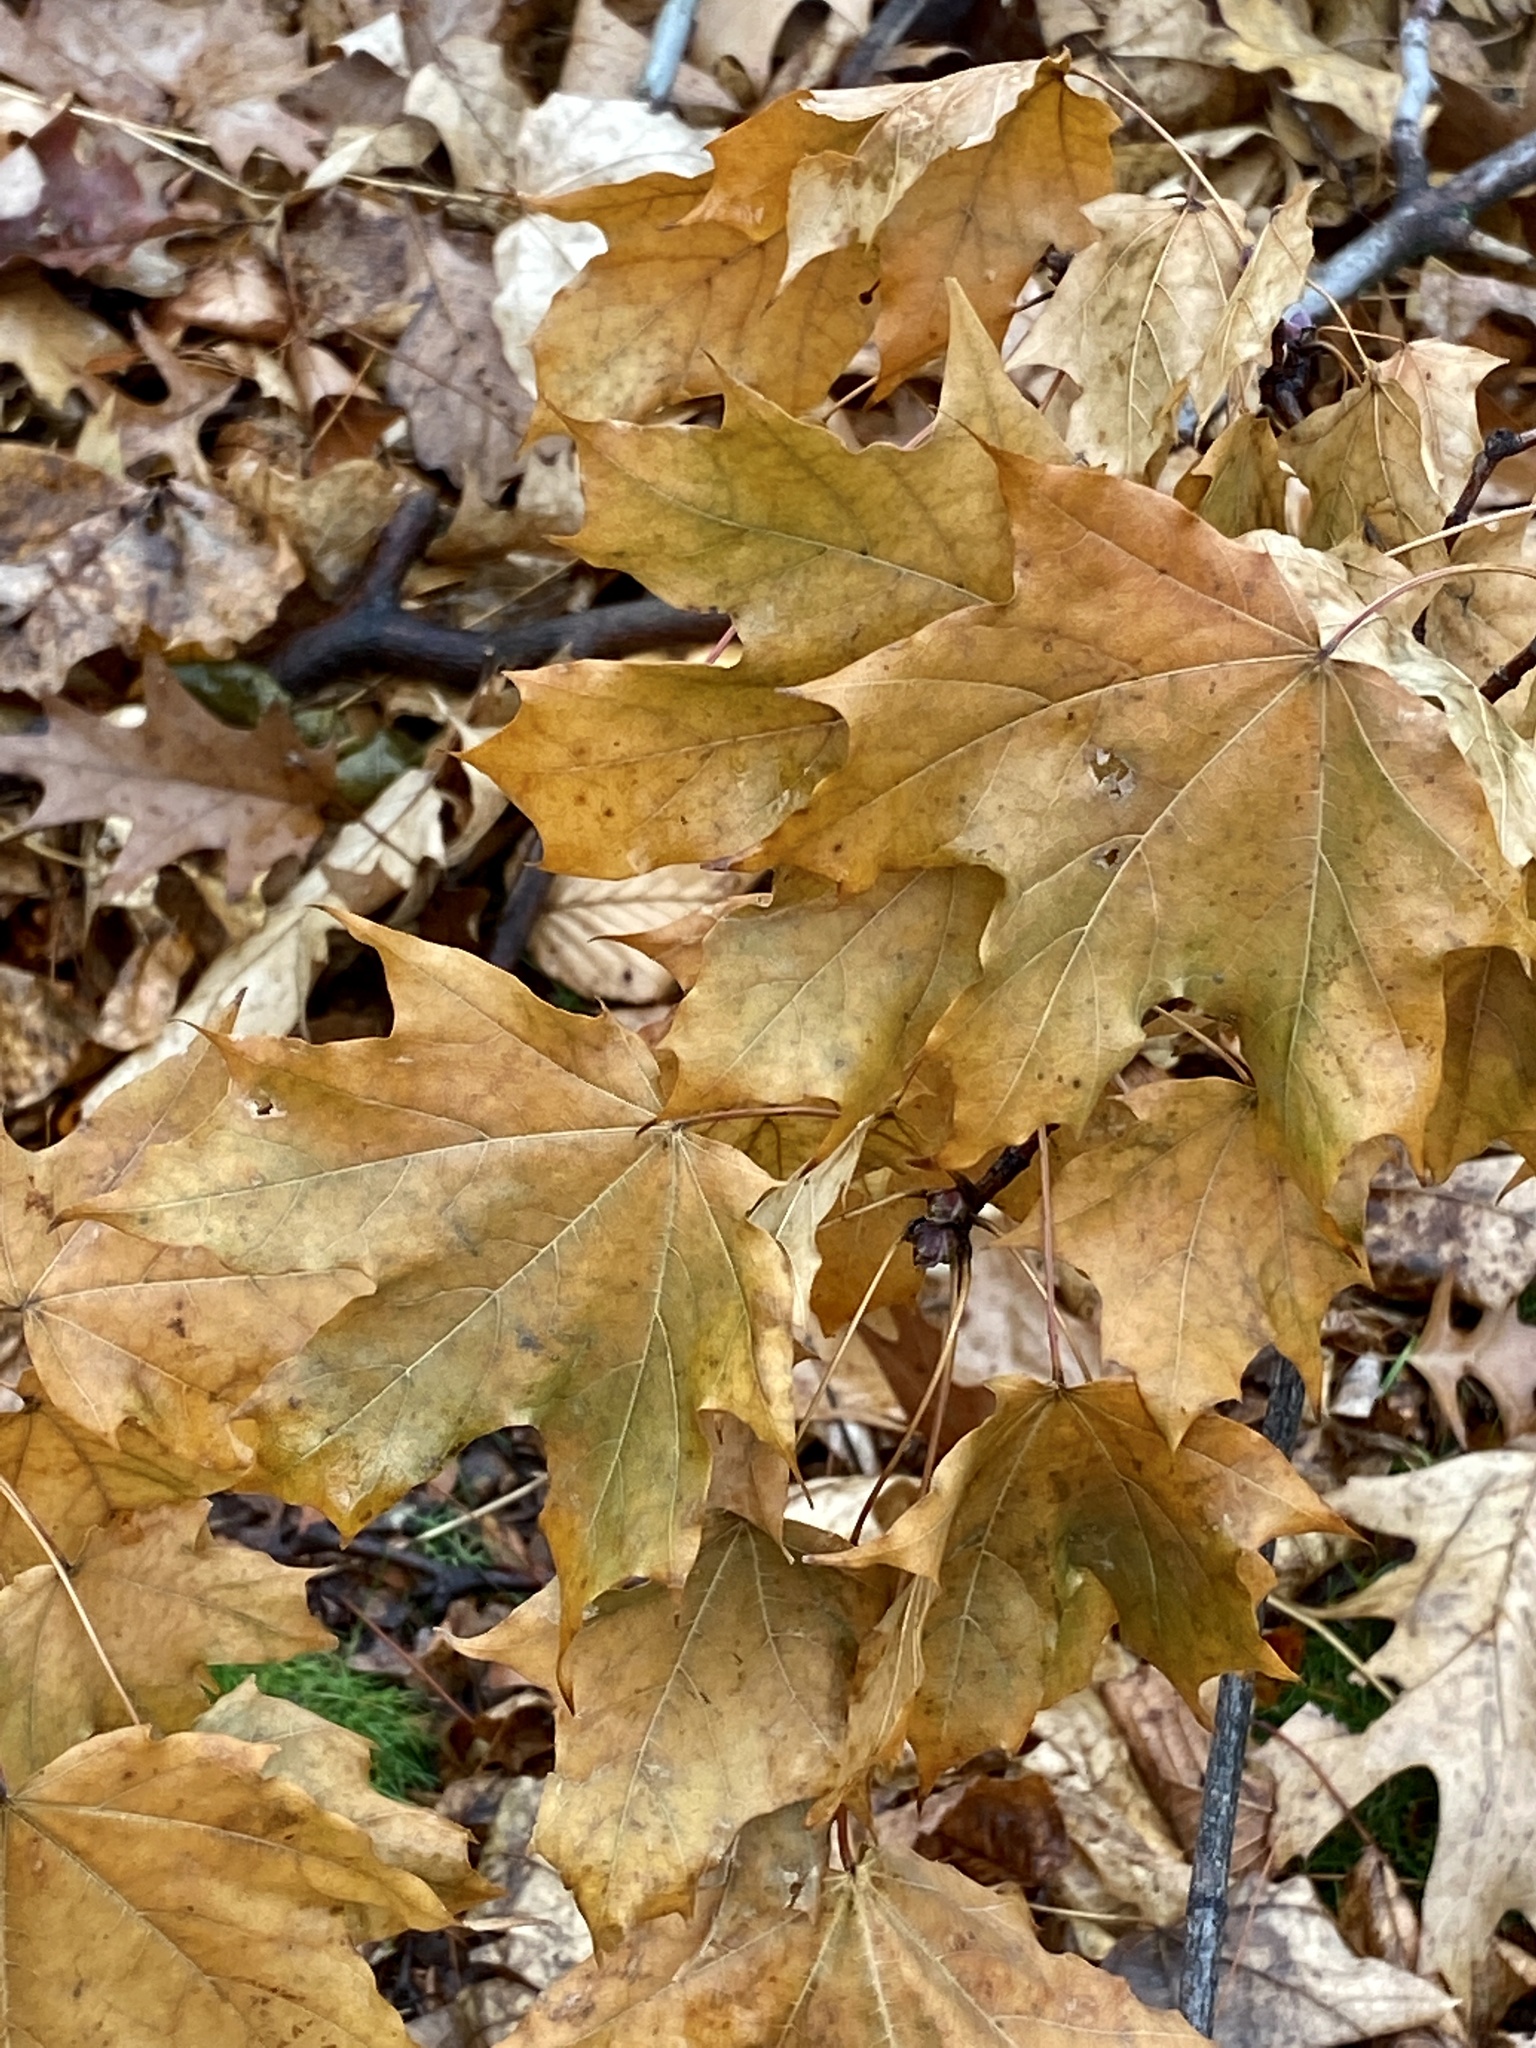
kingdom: Plantae
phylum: Tracheophyta
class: Magnoliopsida
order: Sapindales
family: Sapindaceae
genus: Acer
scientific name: Acer platanoides
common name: Norway maple
